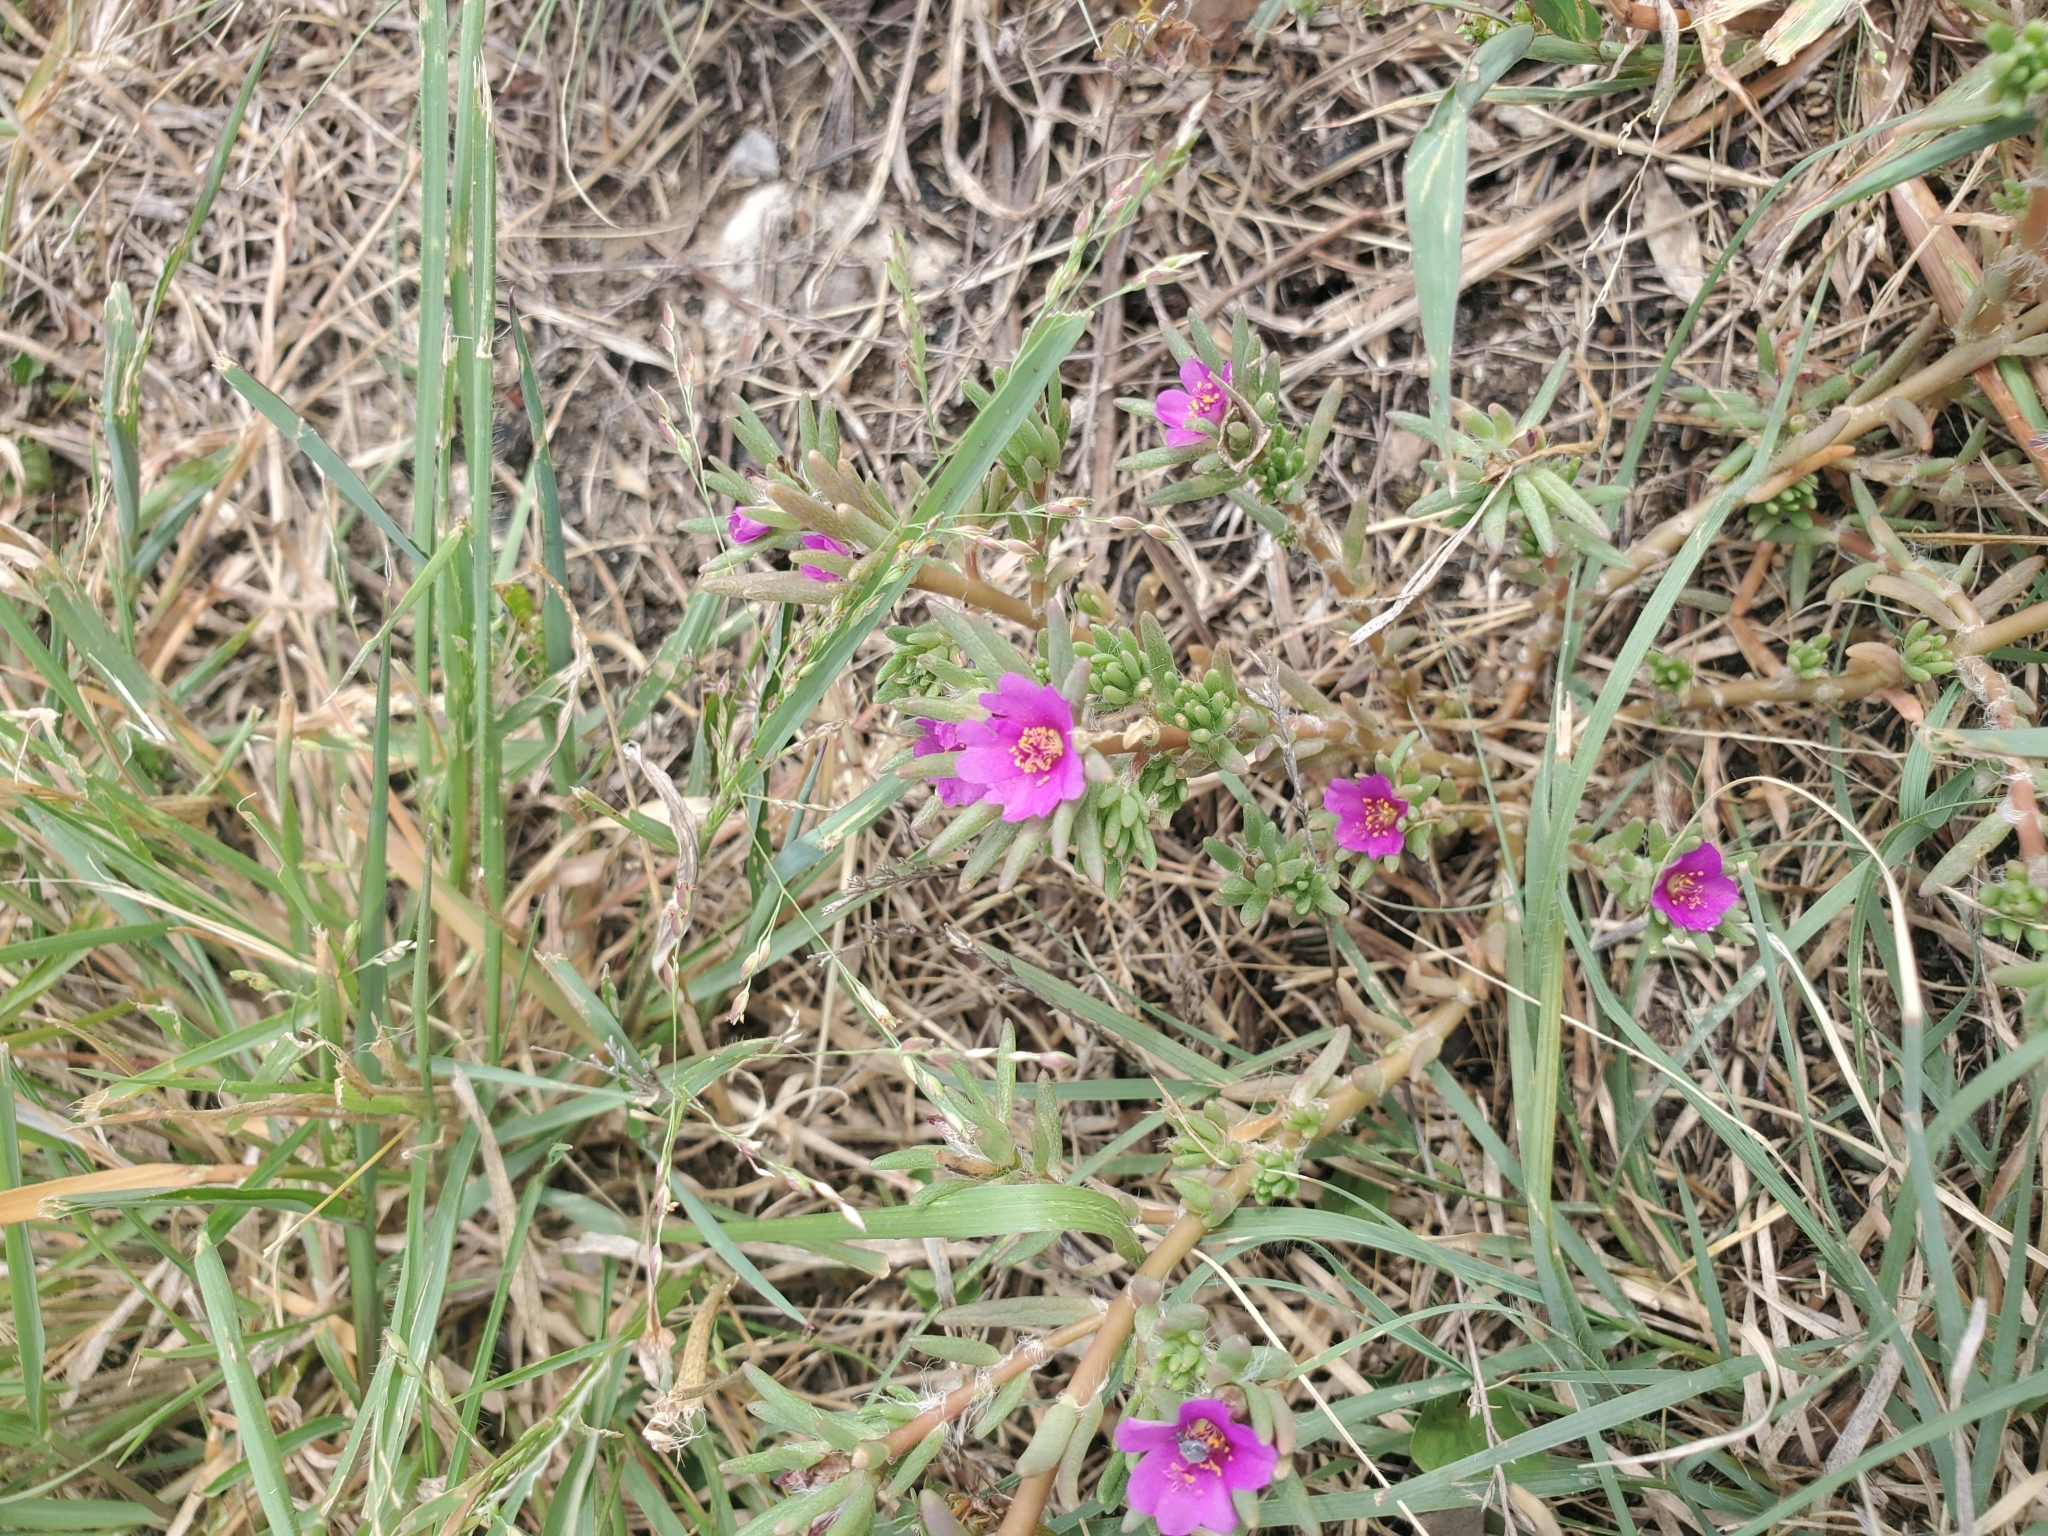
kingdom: Plantae
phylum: Tracheophyta
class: Magnoliopsida
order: Caryophyllales
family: Portulacaceae
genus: Portulaca
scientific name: Portulaca pilosa
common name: Kiss me quick
